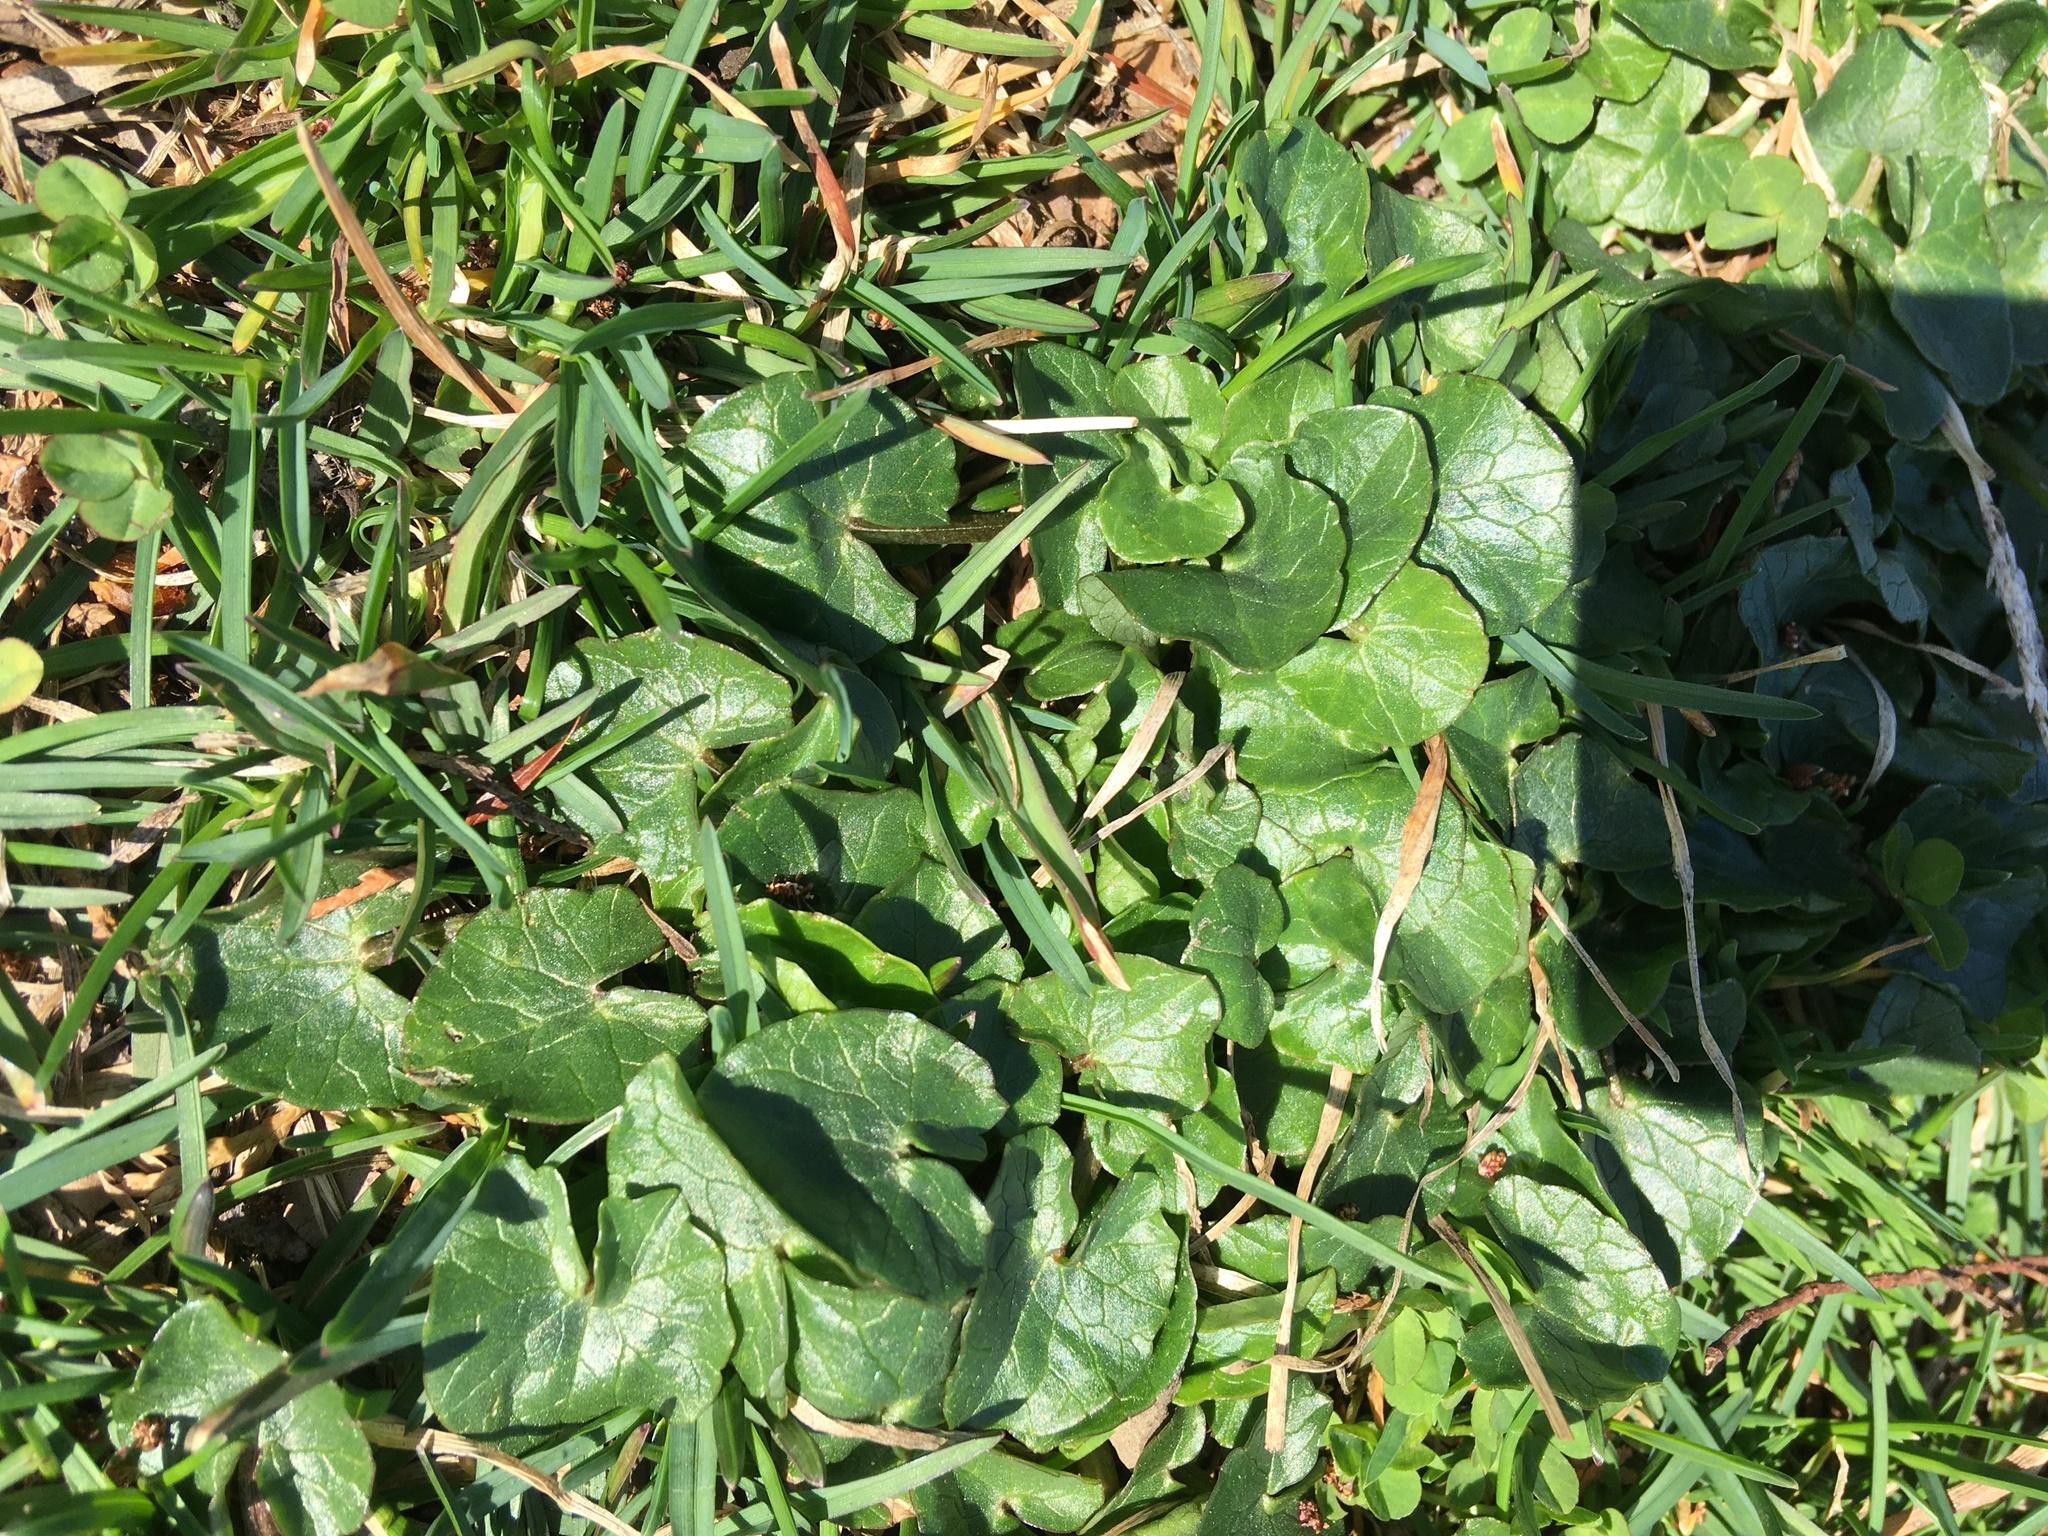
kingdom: Plantae
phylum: Tracheophyta
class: Magnoliopsida
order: Ranunculales
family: Ranunculaceae
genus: Ficaria
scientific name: Ficaria verna
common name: Lesser celandine
